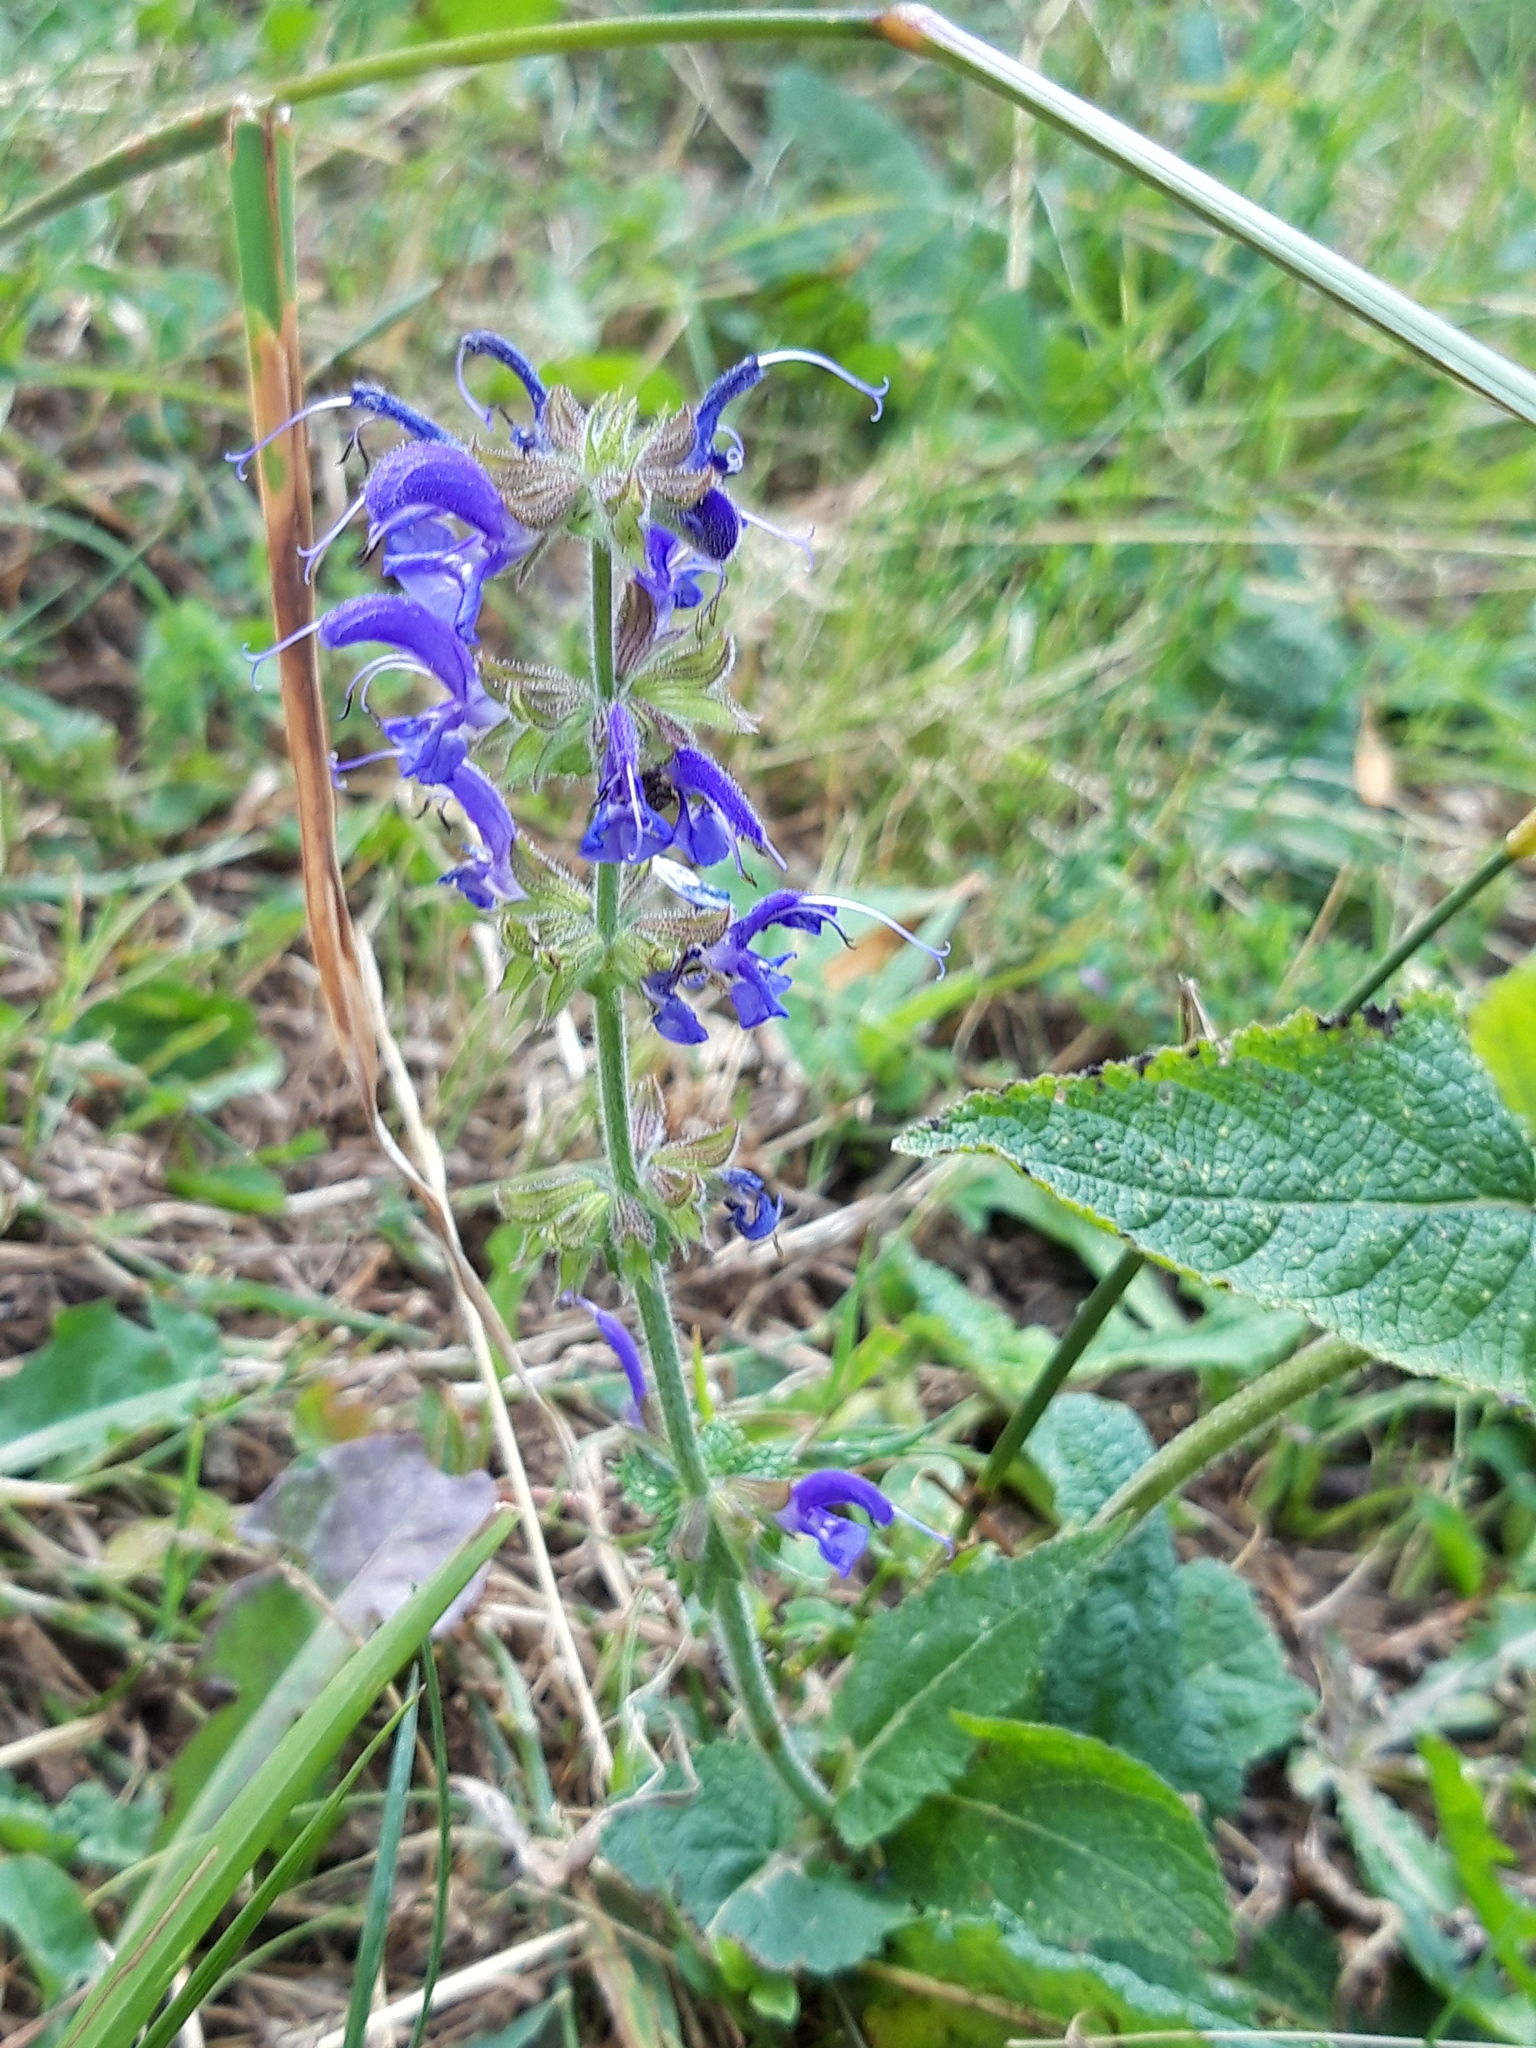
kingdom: Plantae
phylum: Tracheophyta
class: Magnoliopsida
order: Lamiales
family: Lamiaceae
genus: Salvia
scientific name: Salvia pratensis
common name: Meadow sage
